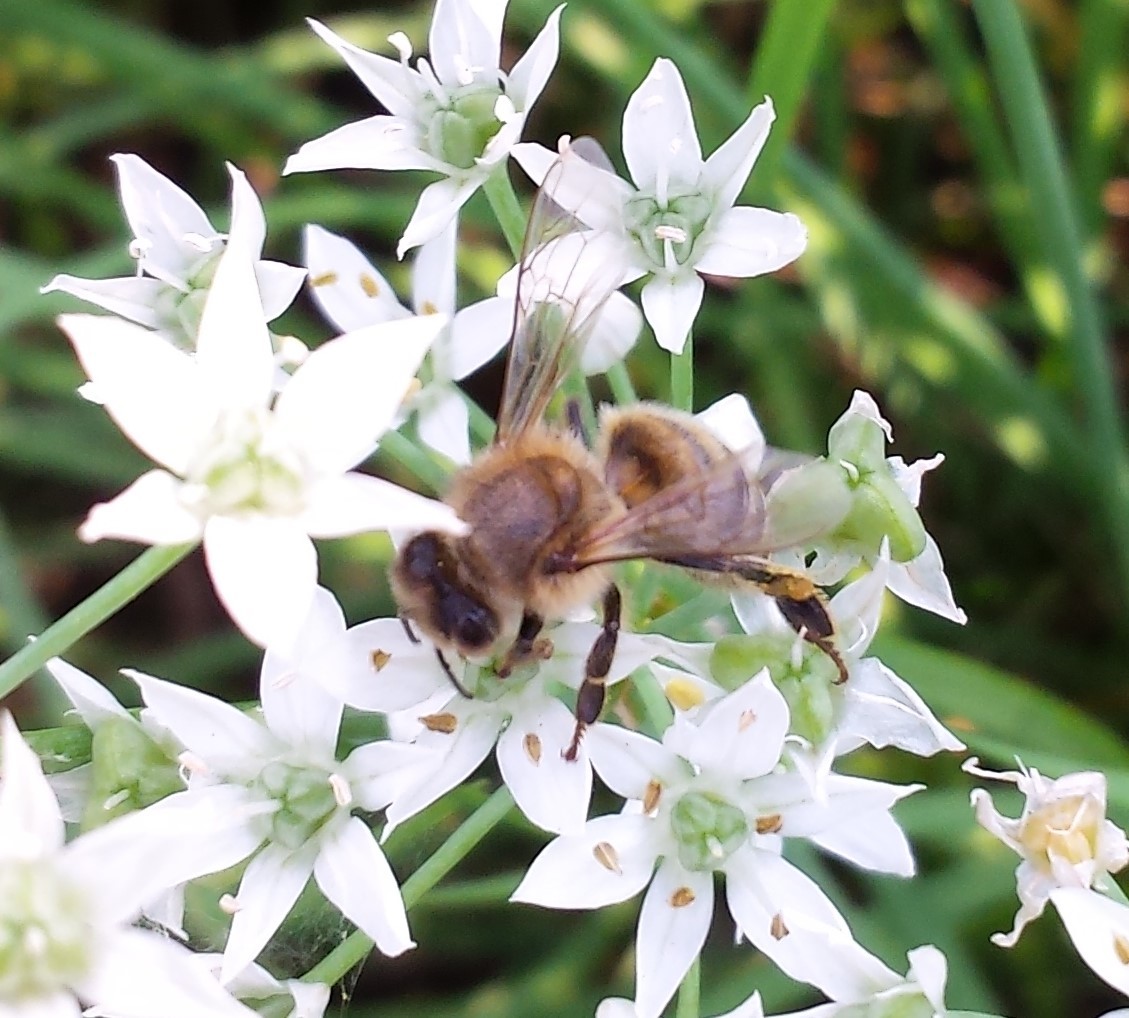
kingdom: Animalia
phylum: Arthropoda
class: Insecta
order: Hymenoptera
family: Apidae
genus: Apis
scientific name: Apis mellifera
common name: Honey bee
